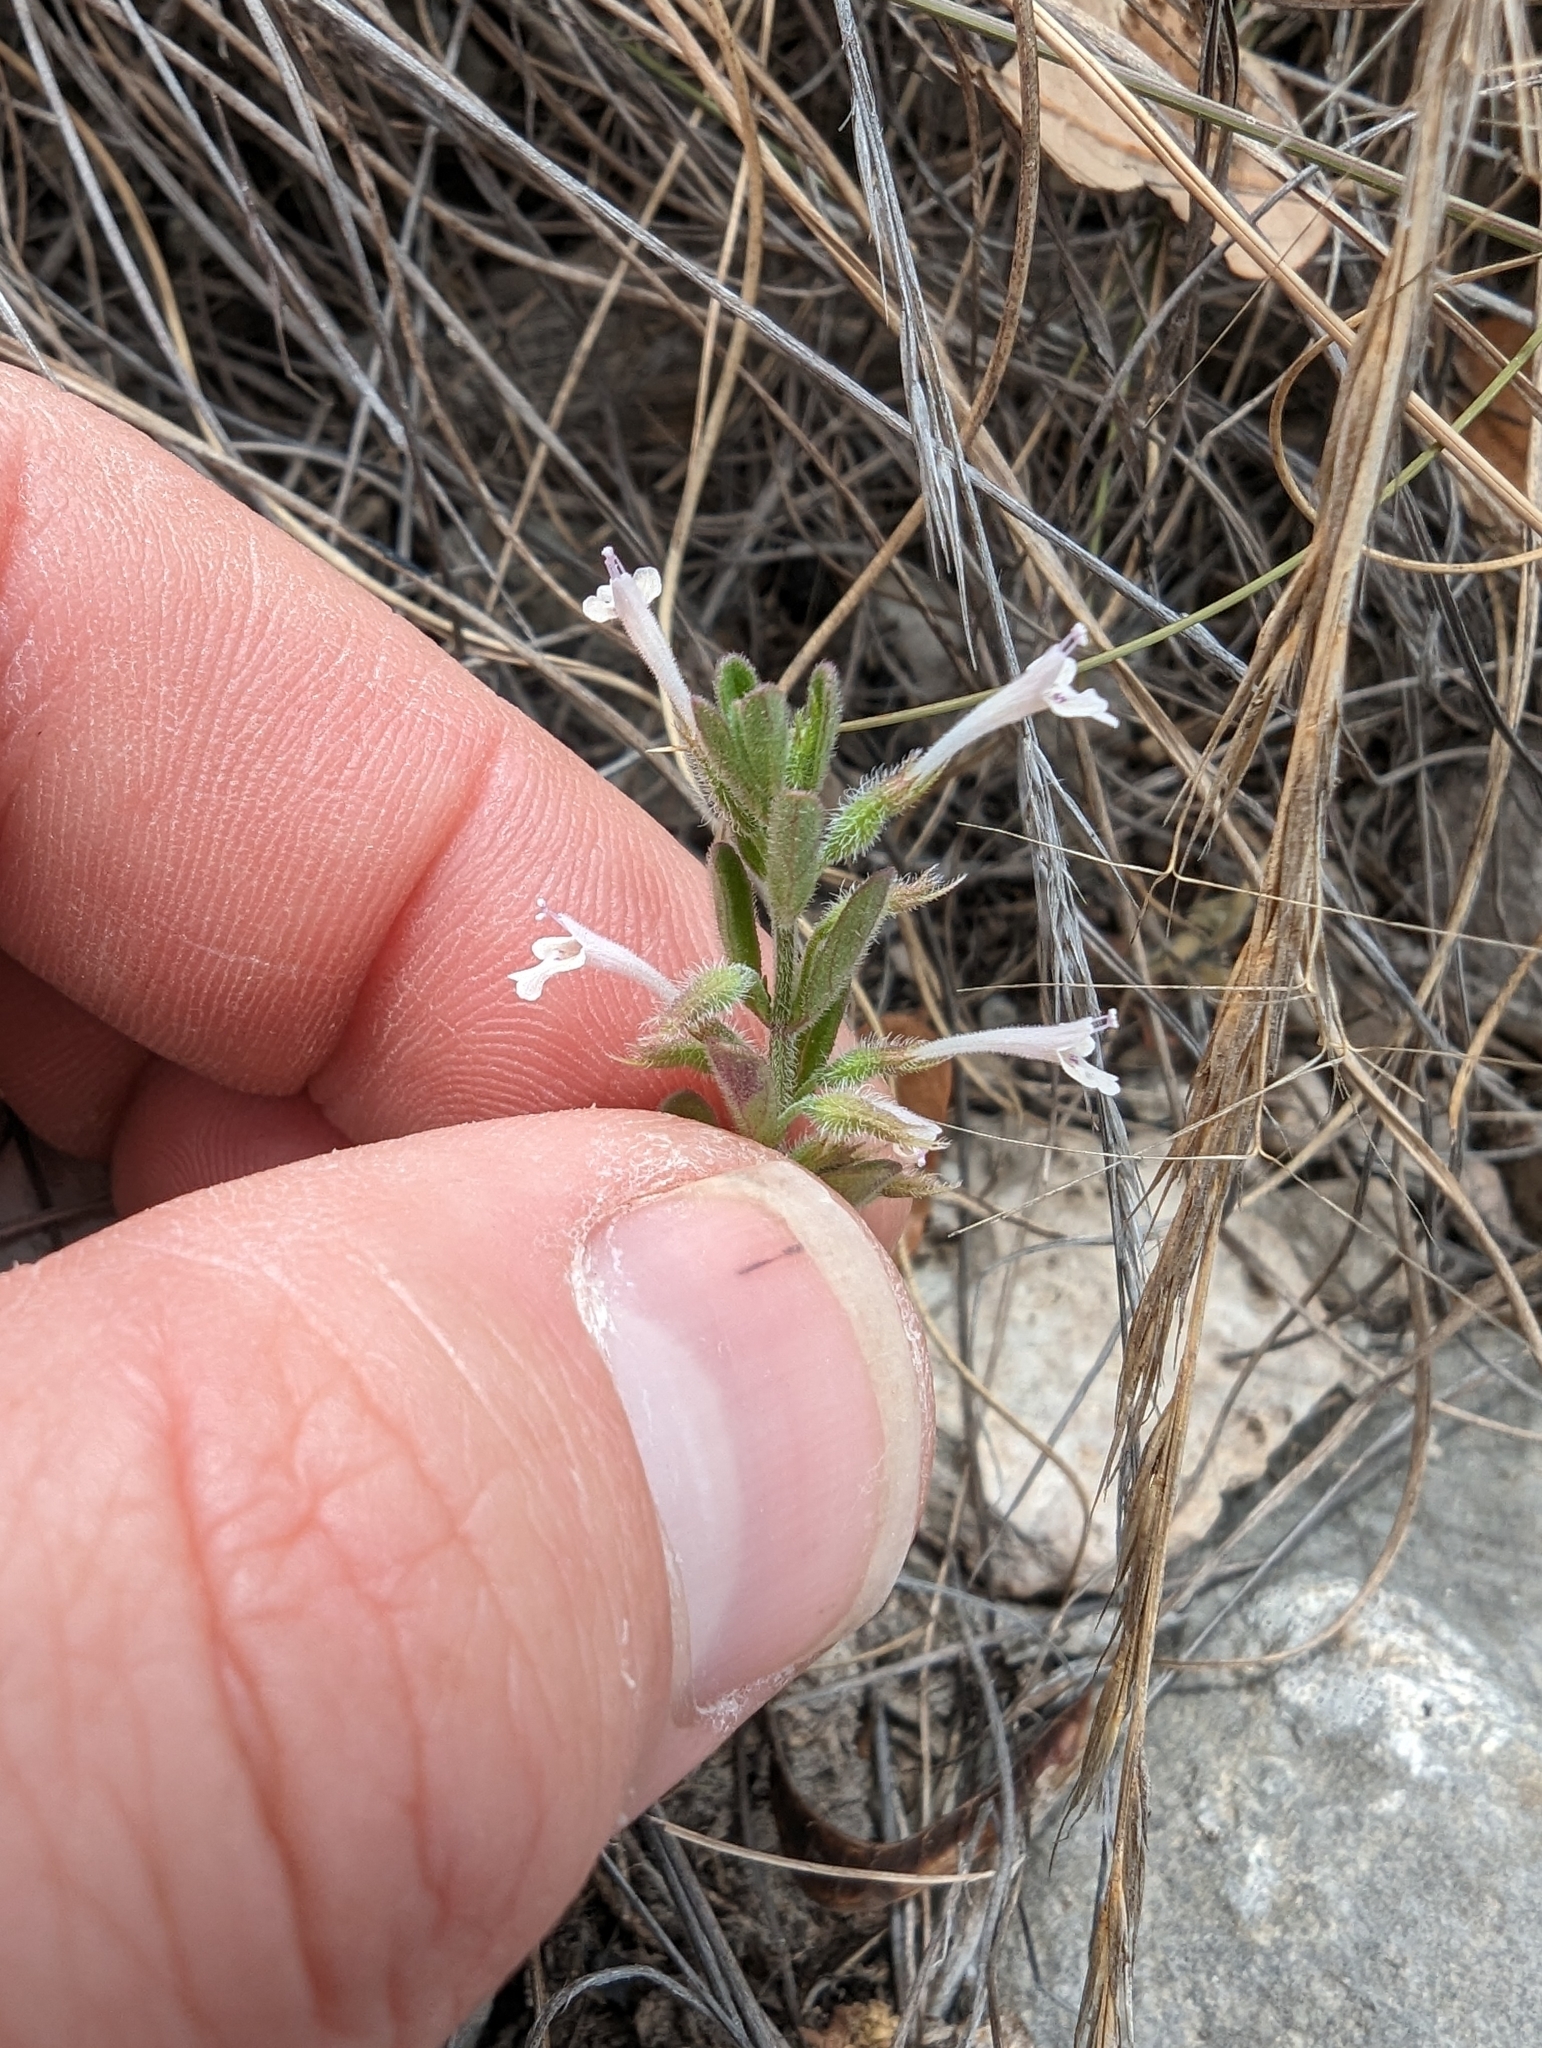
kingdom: Plantae
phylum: Tracheophyta
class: Magnoliopsida
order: Lamiales
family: Lamiaceae
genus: Hedeoma
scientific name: Hedeoma drummondii
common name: New mexico pennyroyal
